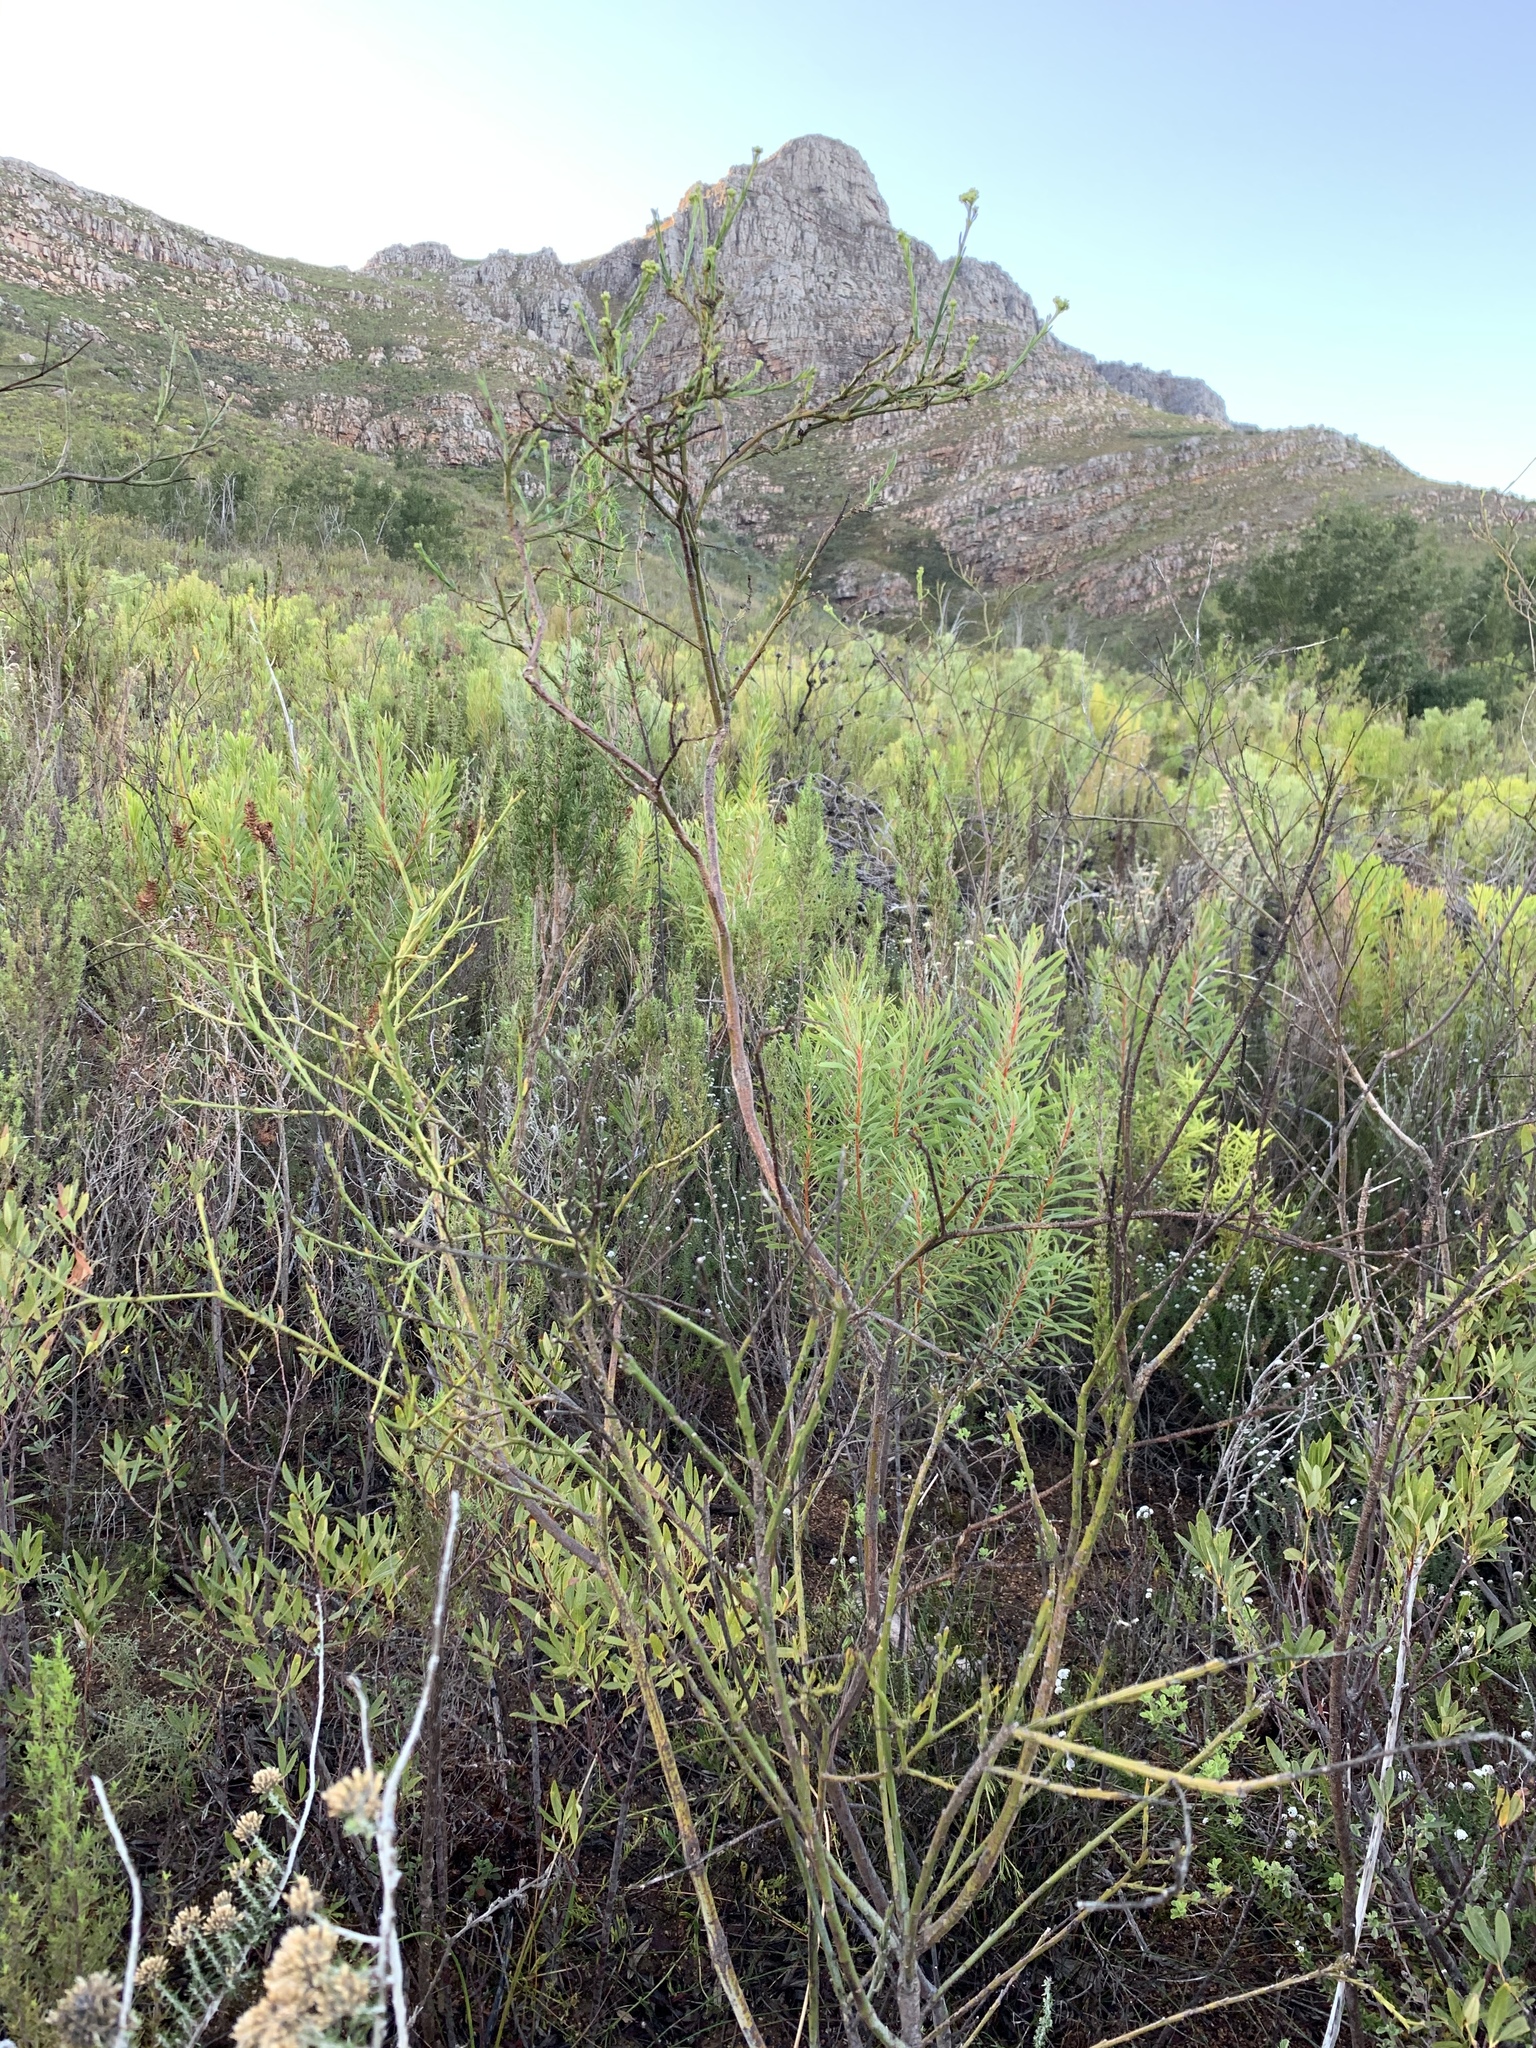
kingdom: Plantae
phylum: Tracheophyta
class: Magnoliopsida
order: Santalales
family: Thesiaceae
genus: Thesium
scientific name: Thesium strictum
